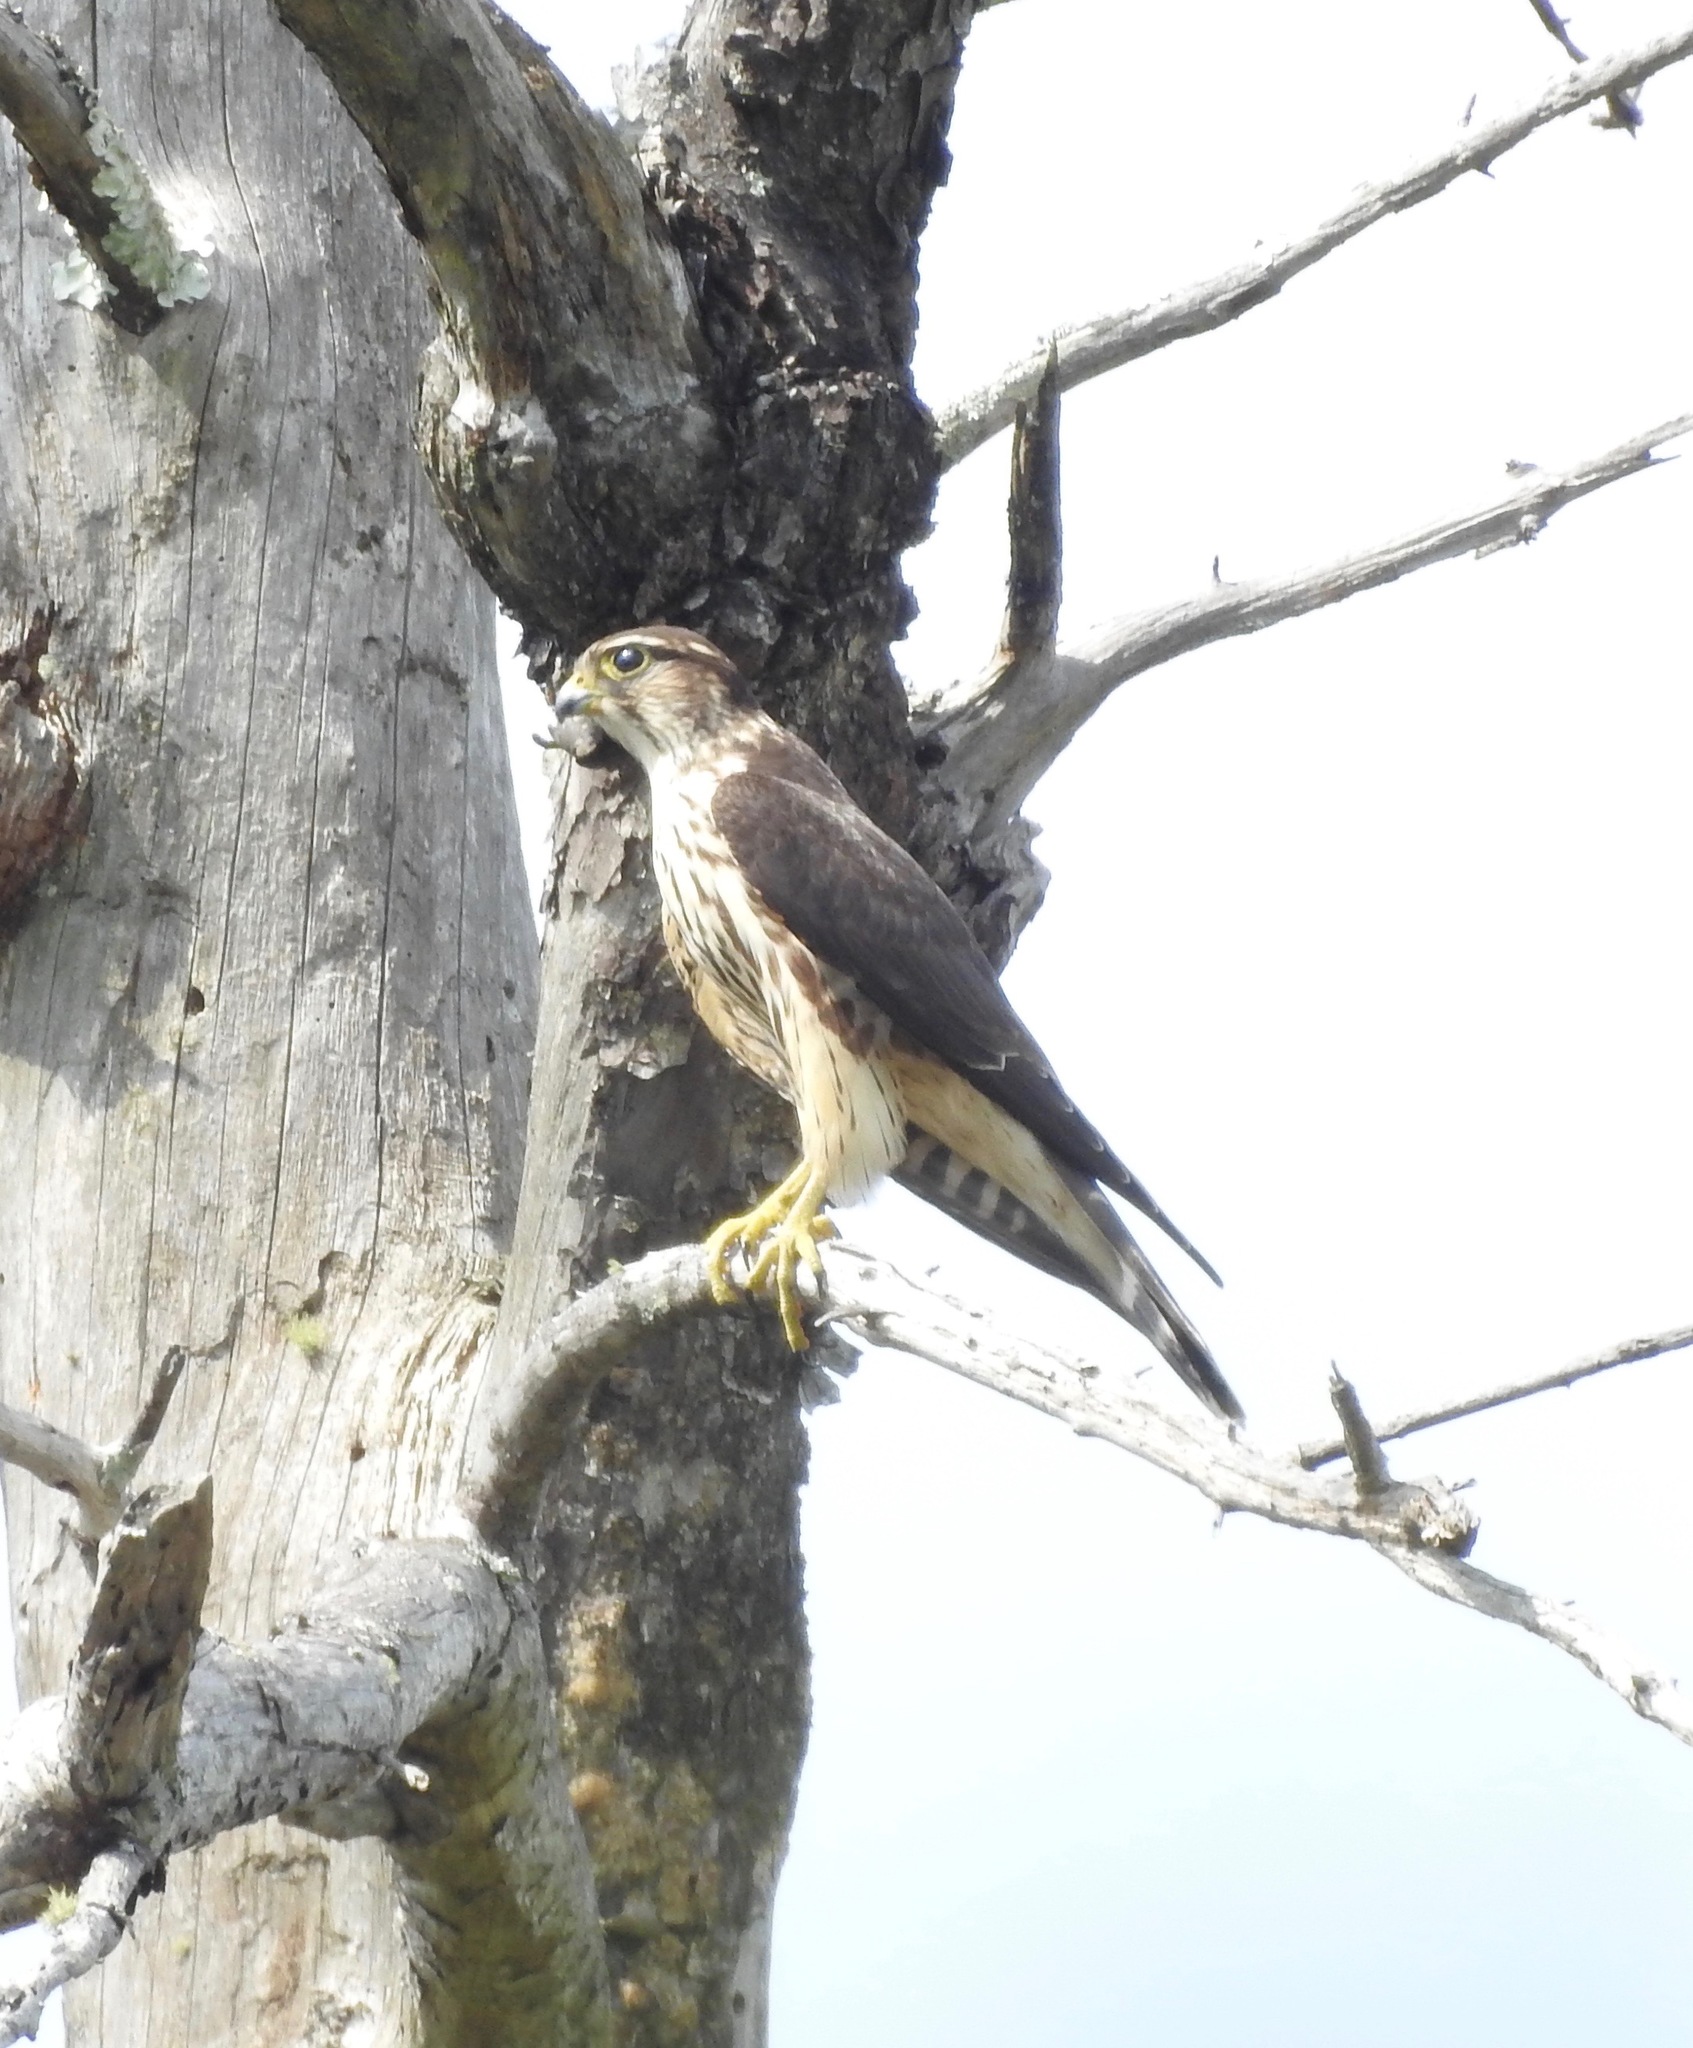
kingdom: Animalia
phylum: Chordata
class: Aves
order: Falconiformes
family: Falconidae
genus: Falco
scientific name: Falco columbarius
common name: Merlin
